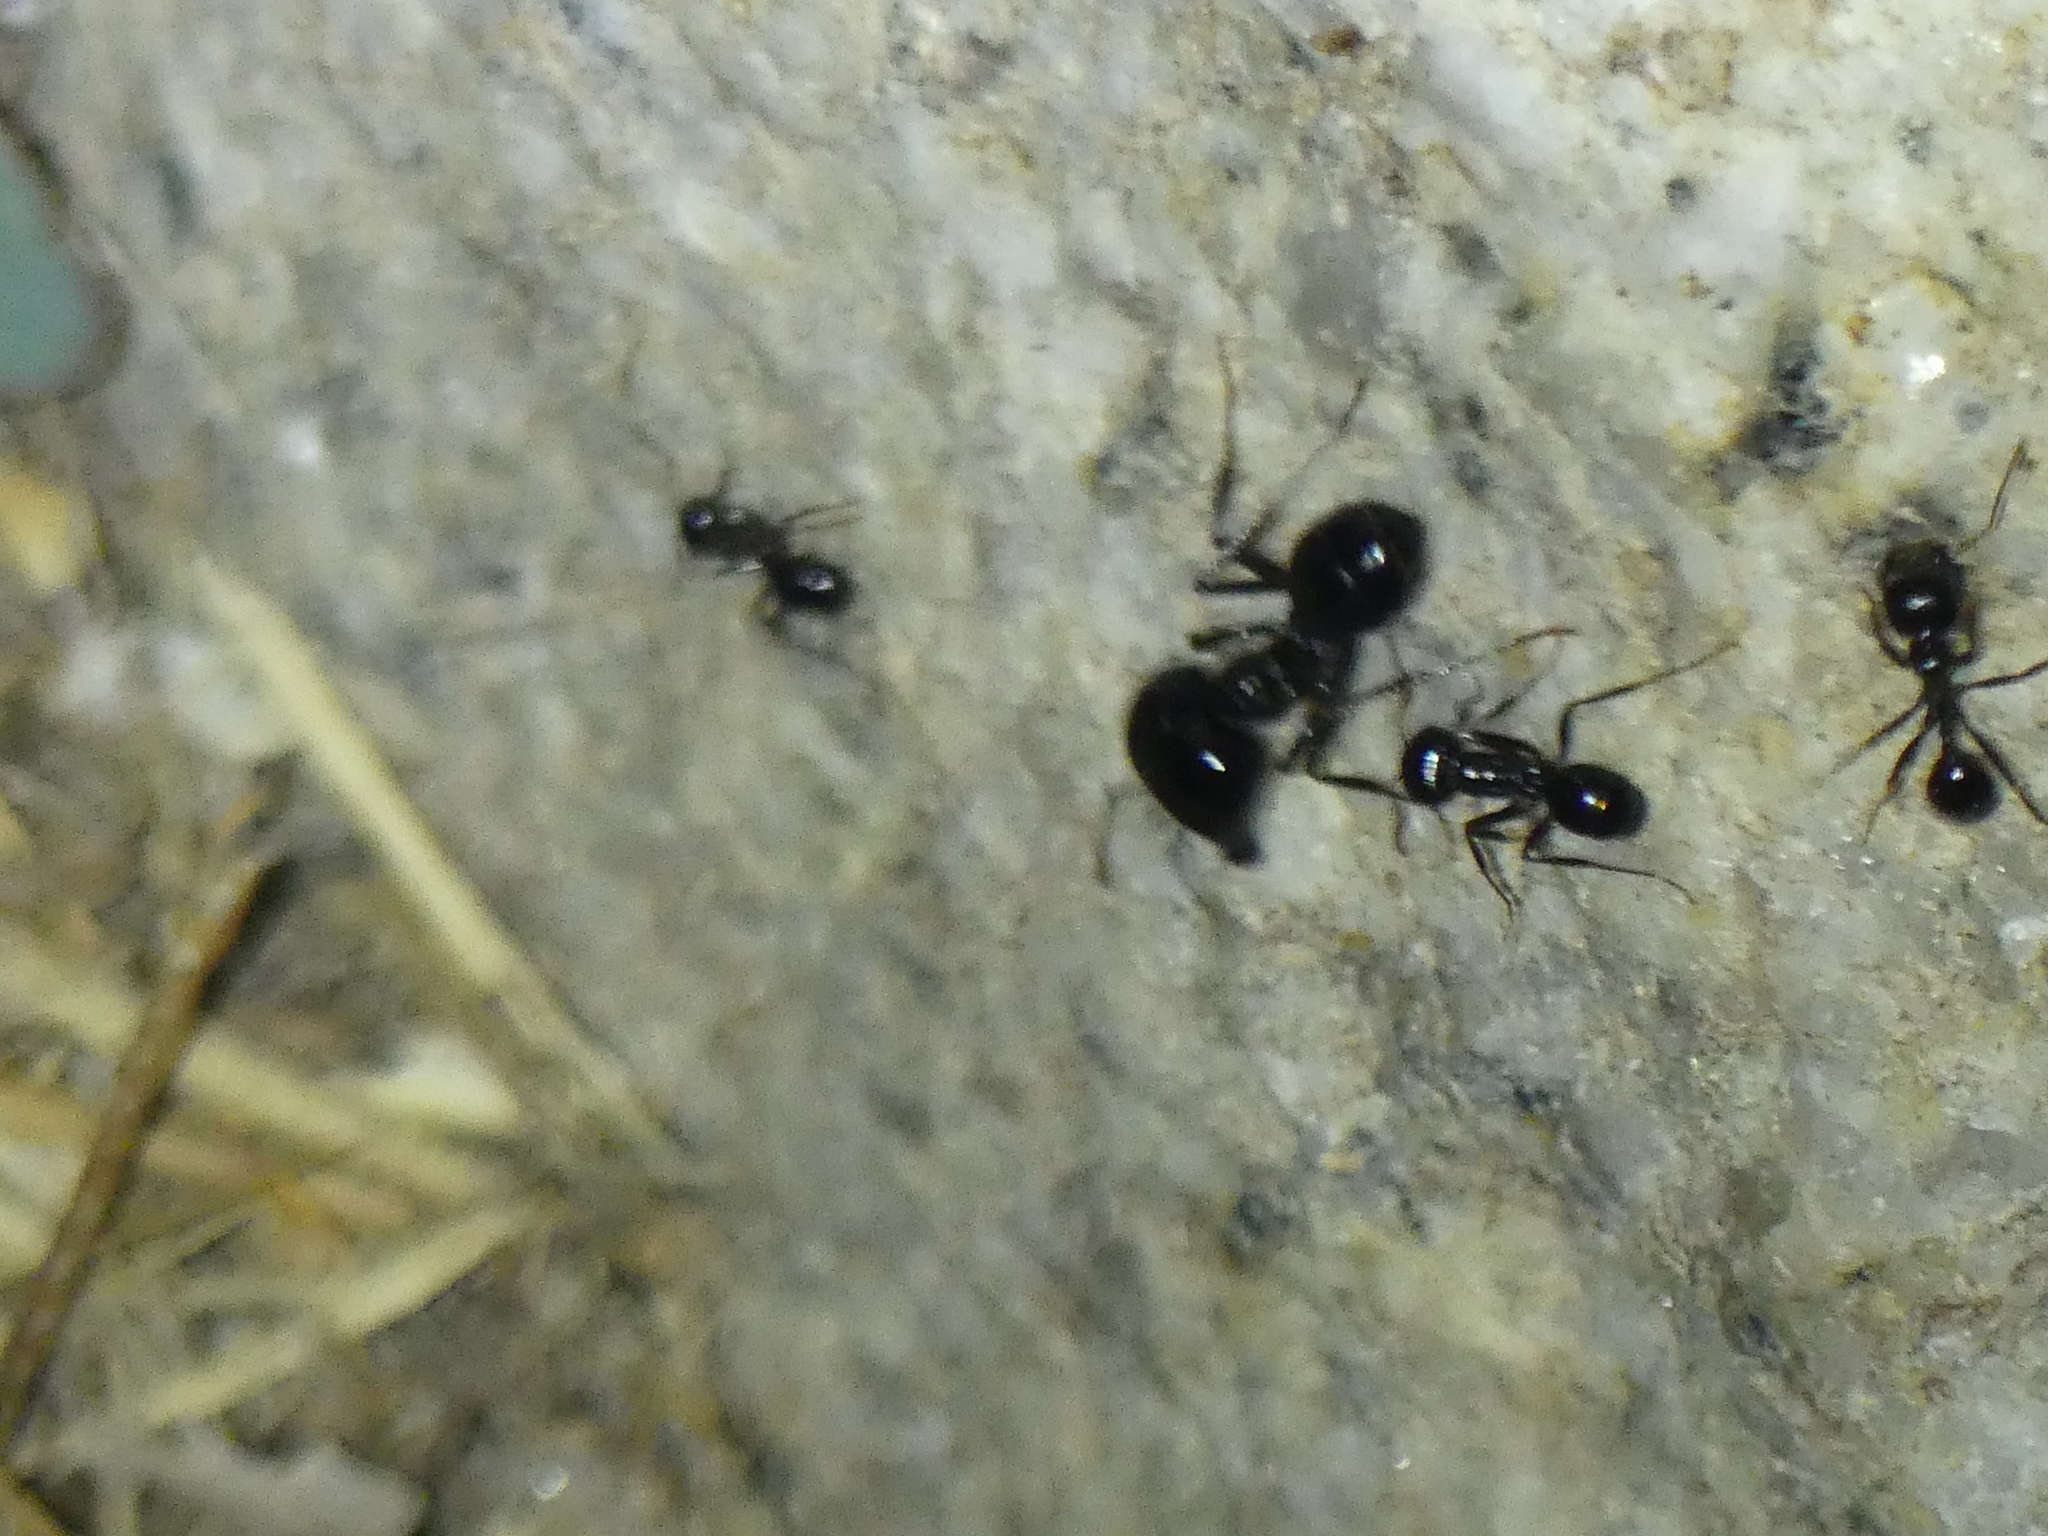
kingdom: Animalia
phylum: Arthropoda
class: Insecta
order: Hymenoptera
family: Formicidae
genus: Messor
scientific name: Messor capitatus
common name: European seed harvesting ant
